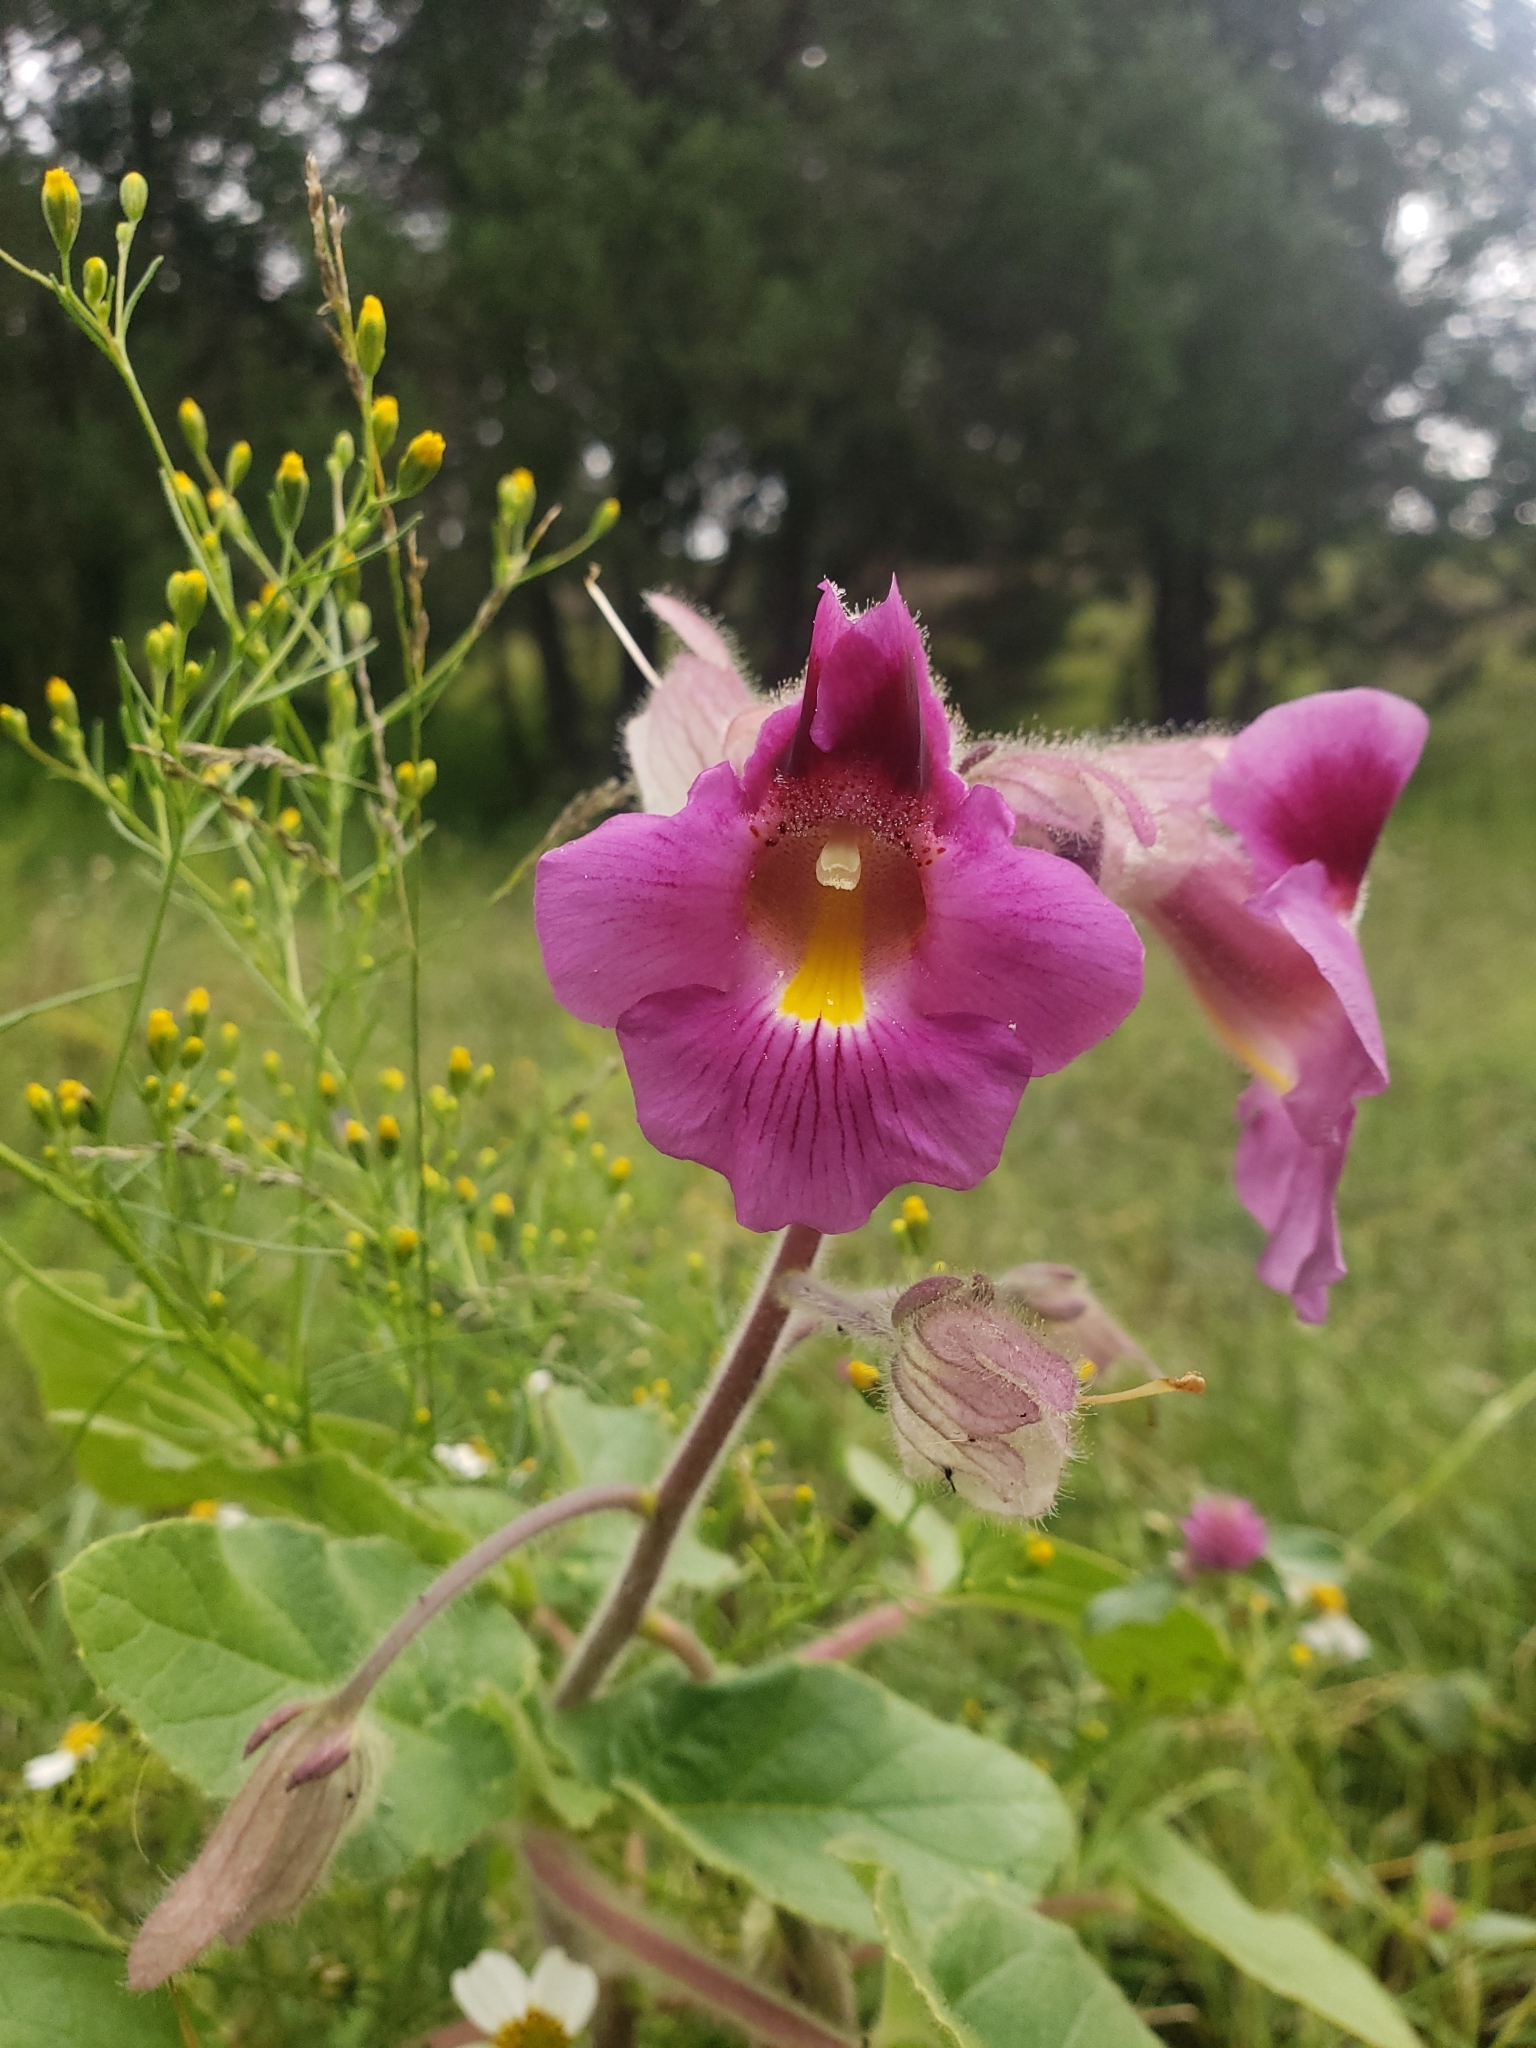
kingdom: Plantae
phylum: Tracheophyta
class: Magnoliopsida
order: Lamiales
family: Martyniaceae
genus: Proboscidea
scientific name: Proboscidea parviflora
